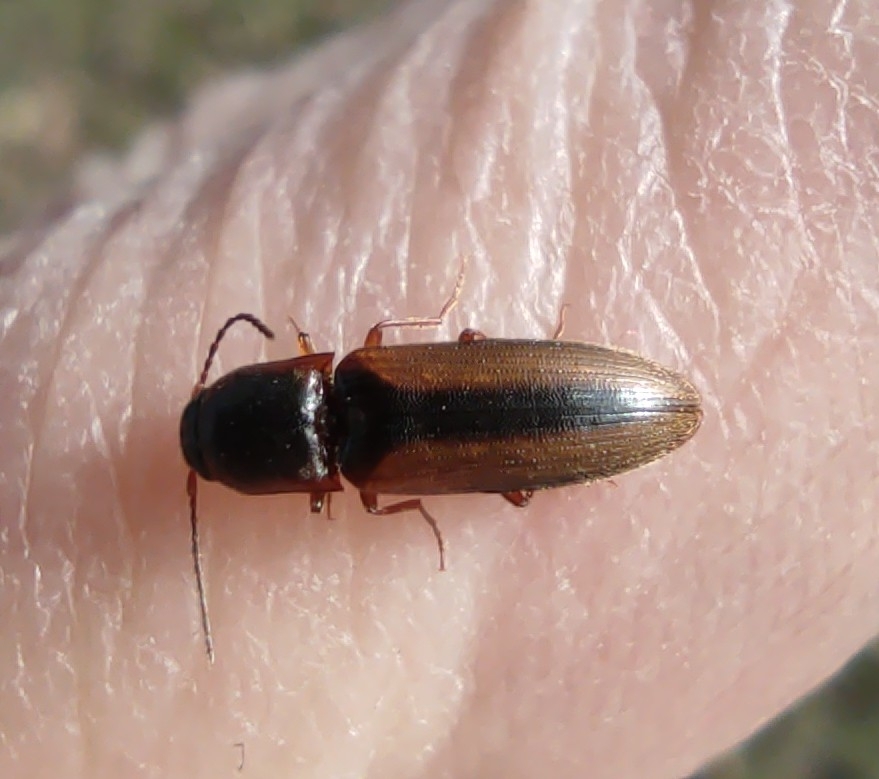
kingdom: Animalia
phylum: Arthropoda
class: Insecta
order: Coleoptera
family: Elateridae
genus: Dalopius
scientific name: Dalopius marginatus
